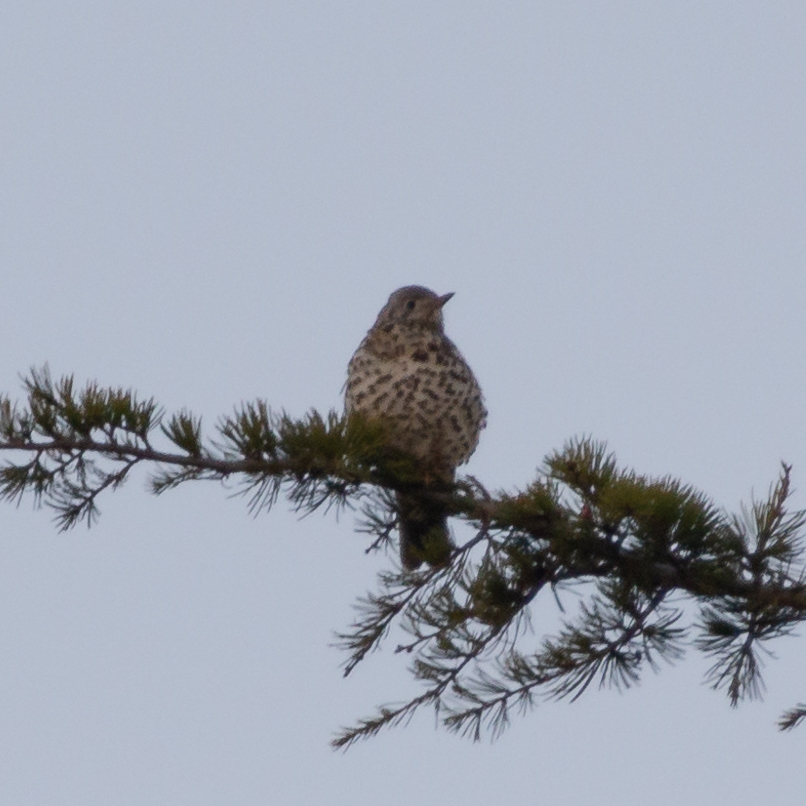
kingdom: Animalia
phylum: Chordata
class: Aves
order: Passeriformes
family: Turdidae
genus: Turdus
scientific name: Turdus viscivorus
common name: Mistle thrush
